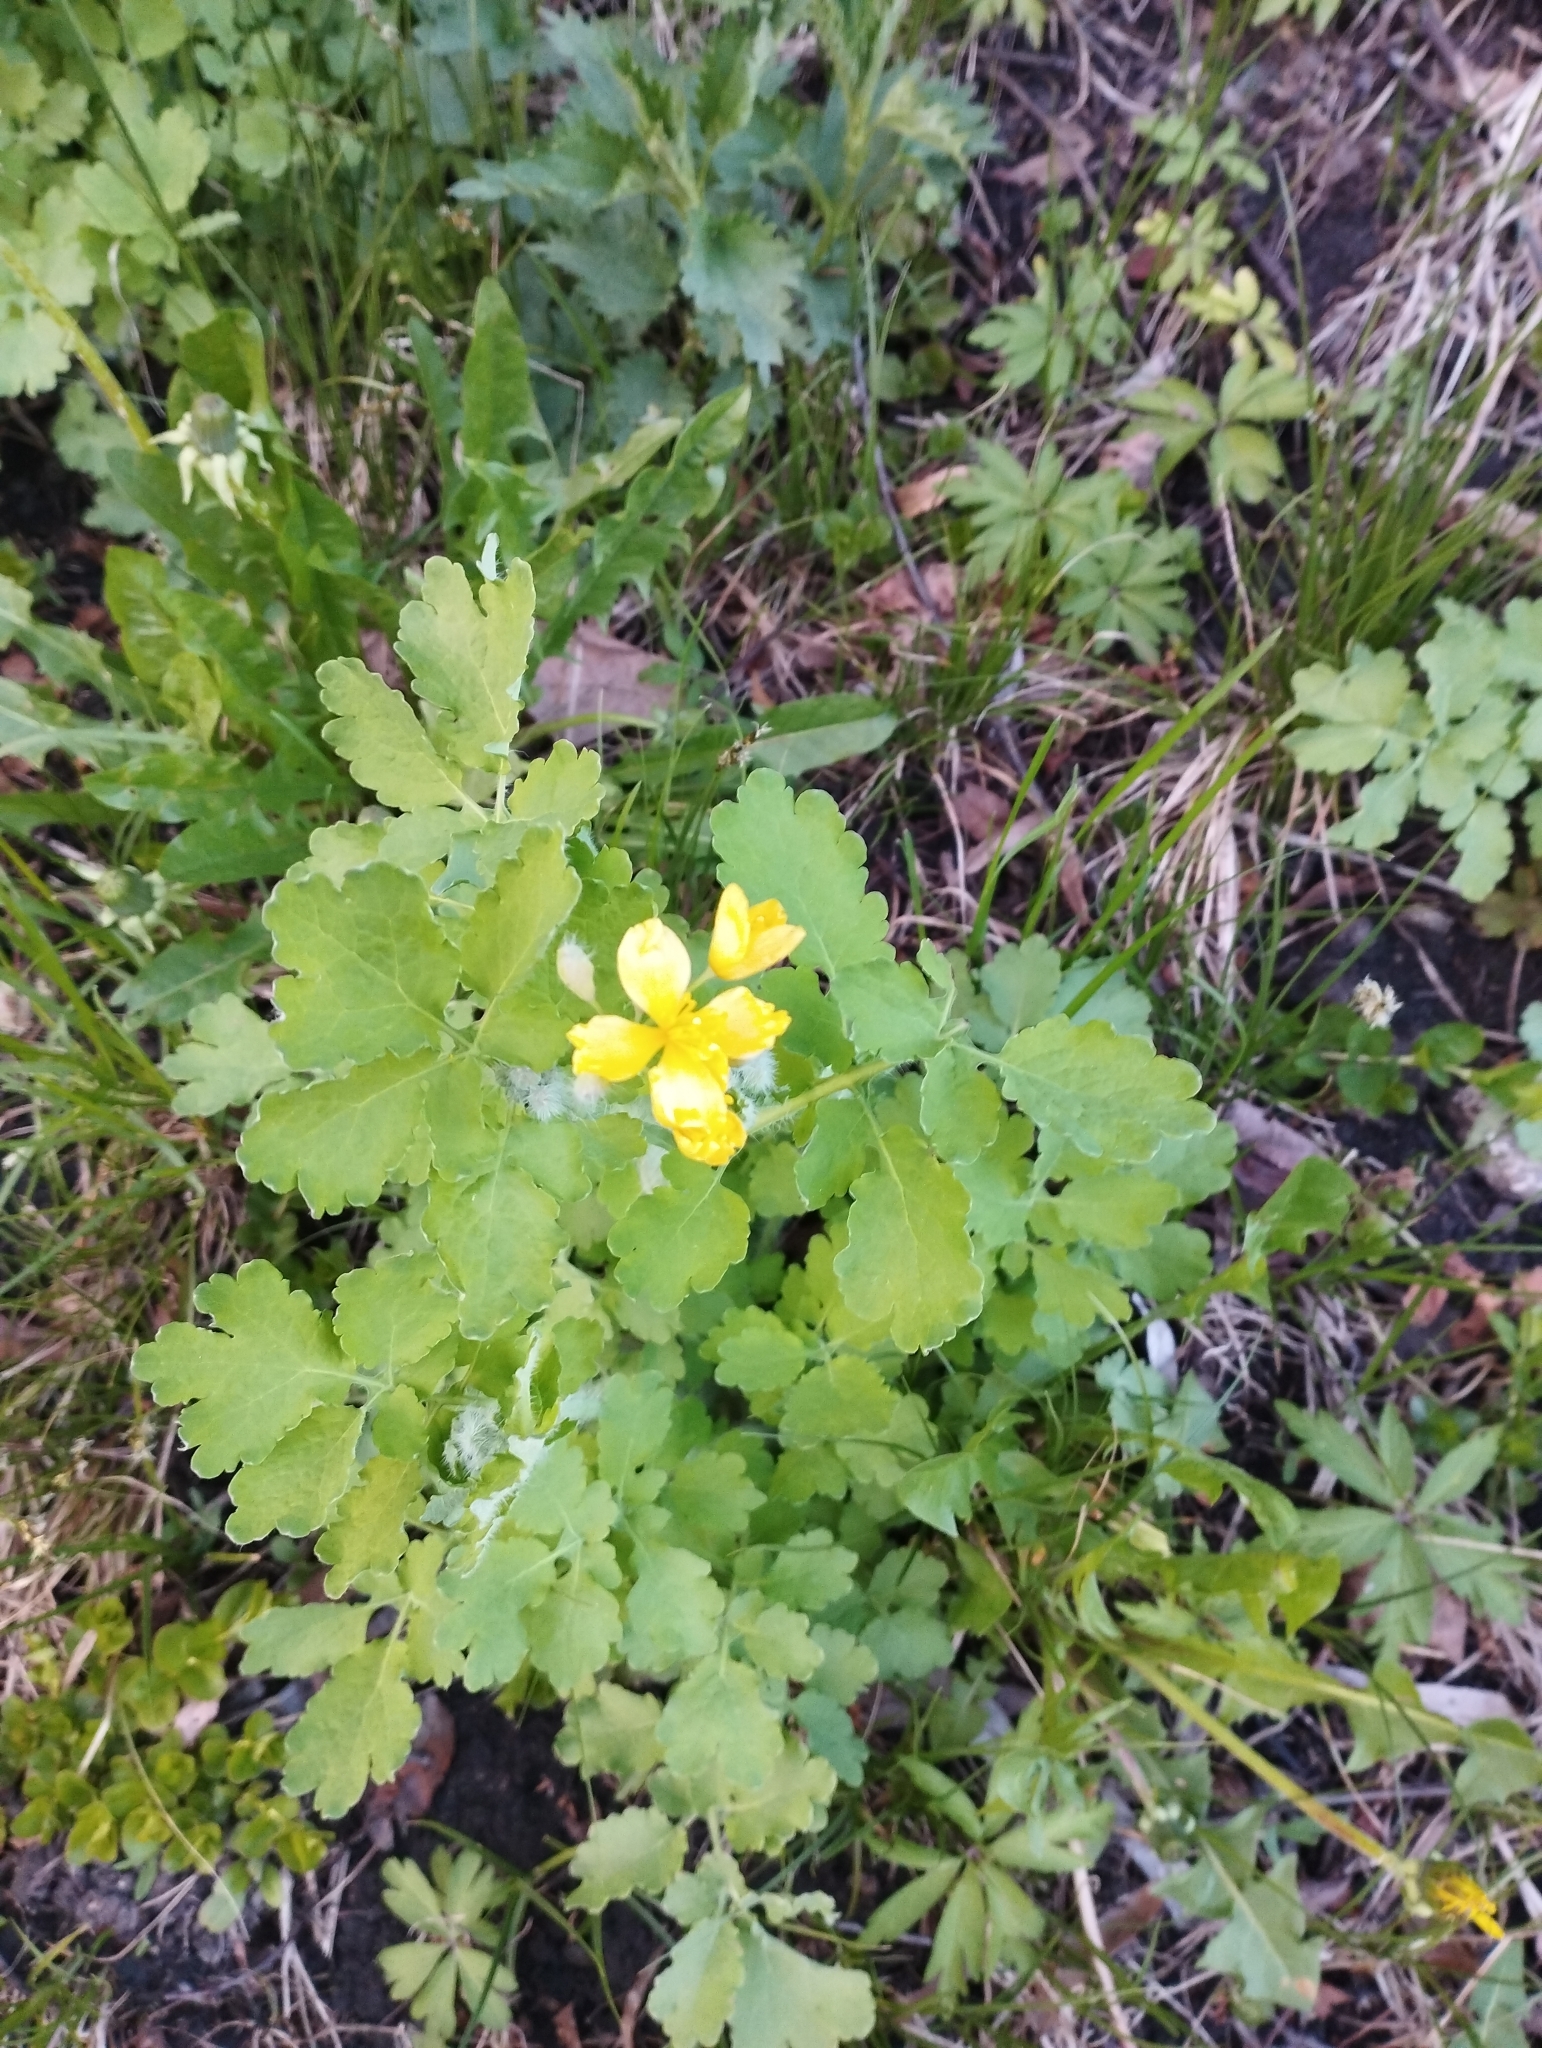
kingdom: Plantae
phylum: Tracheophyta
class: Magnoliopsida
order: Ranunculales
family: Papaveraceae
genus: Chelidonium
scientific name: Chelidonium majus
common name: Greater celandine
